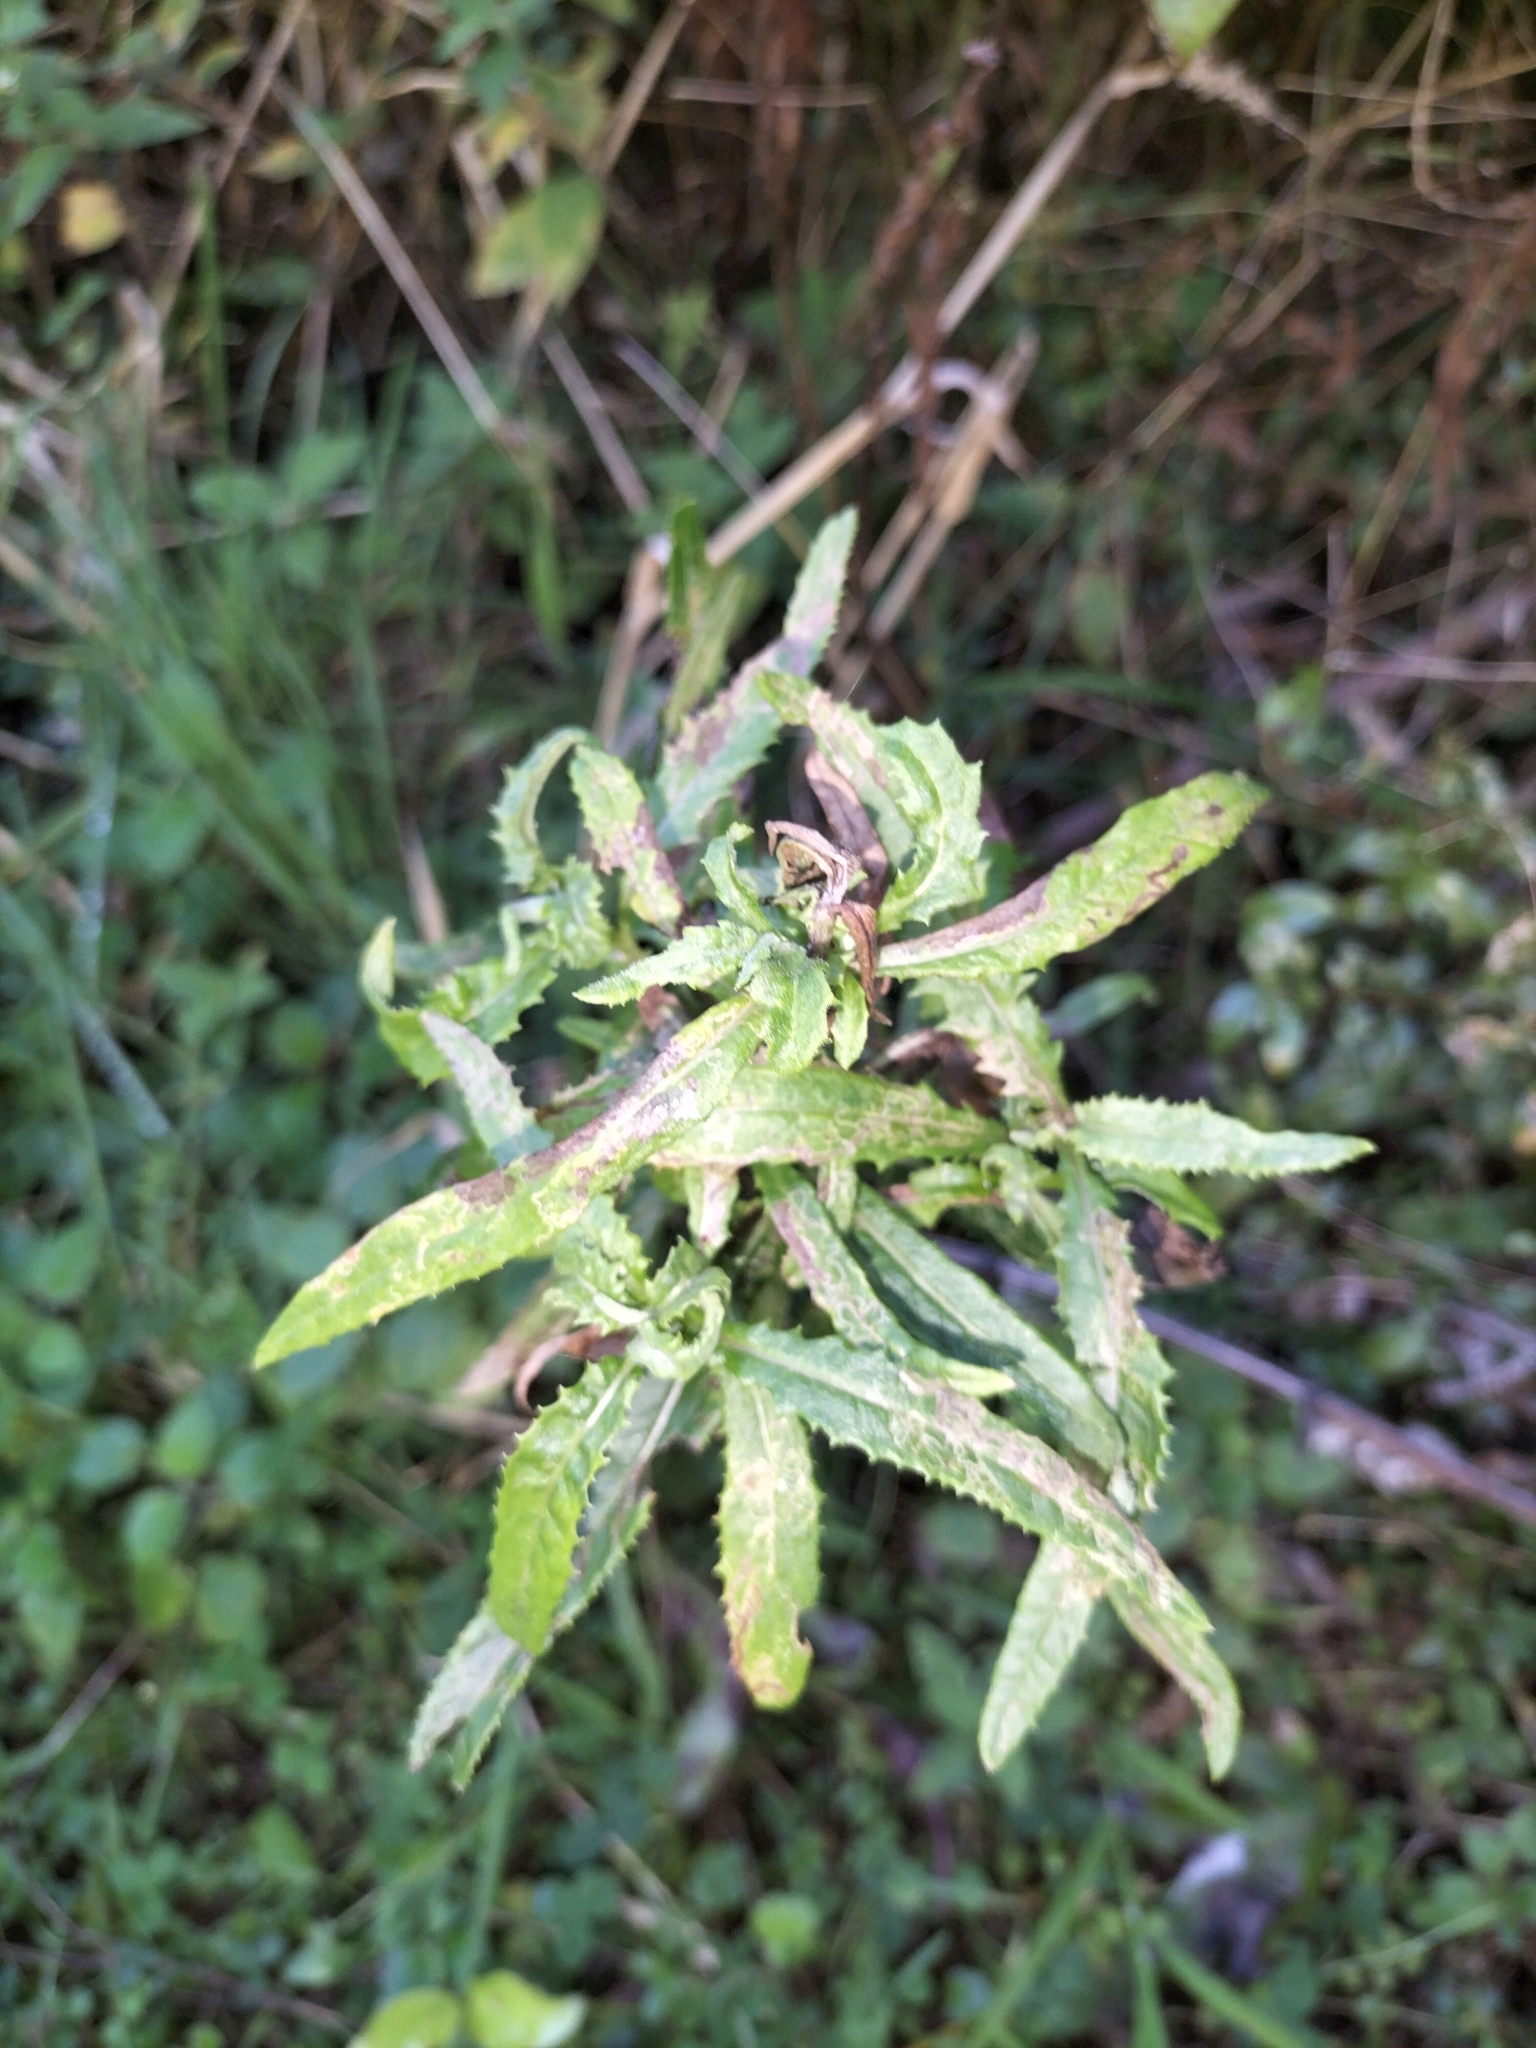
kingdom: Plantae
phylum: Tracheophyta
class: Magnoliopsida
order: Asterales
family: Asteraceae
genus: Senecio
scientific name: Senecio minimus
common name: Toothed fireweed
